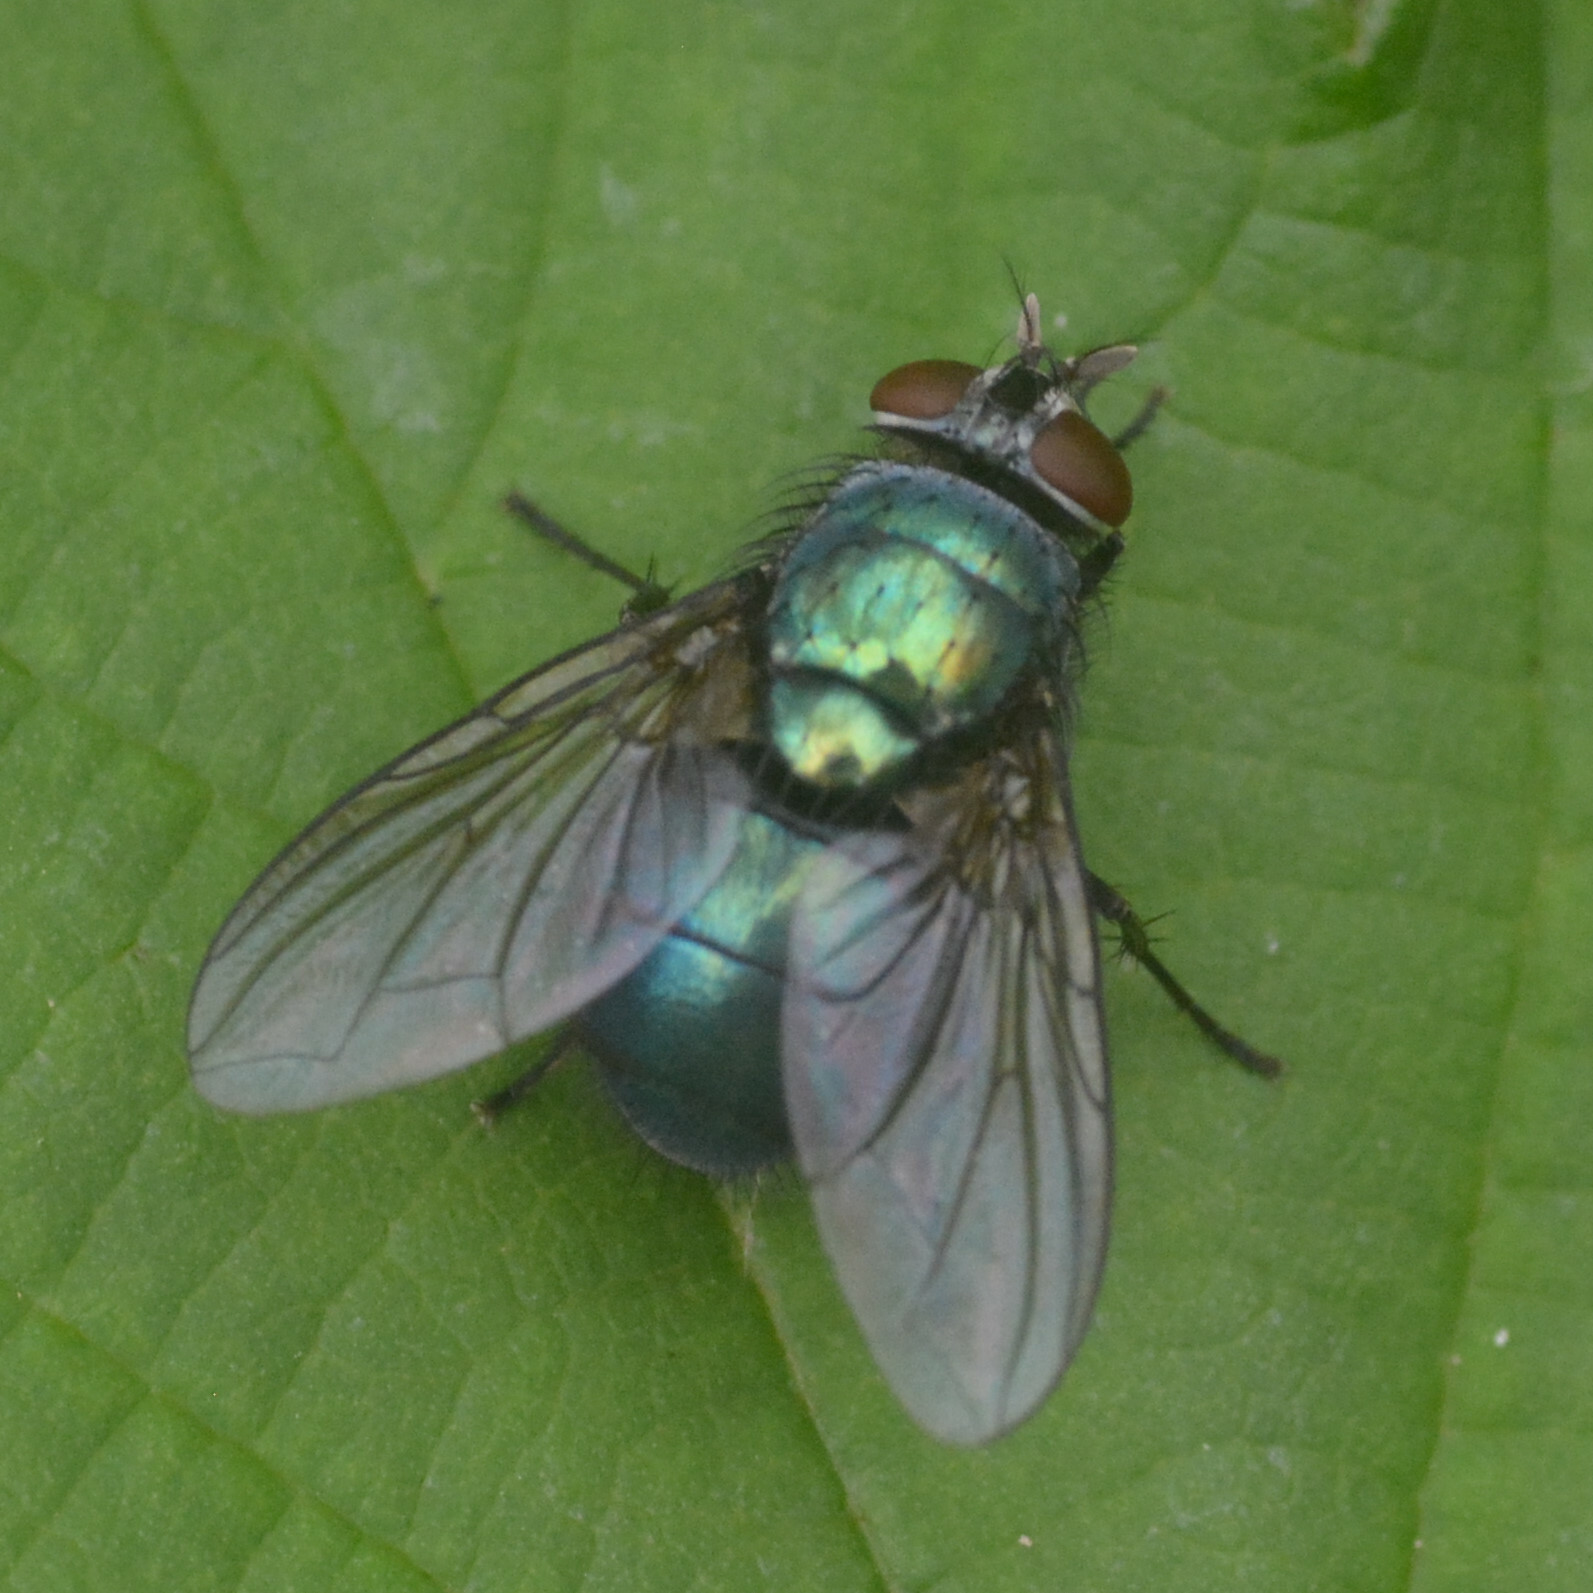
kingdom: Animalia
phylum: Arthropoda
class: Insecta
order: Diptera
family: Calliphoridae
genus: Lucilia
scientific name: Lucilia
